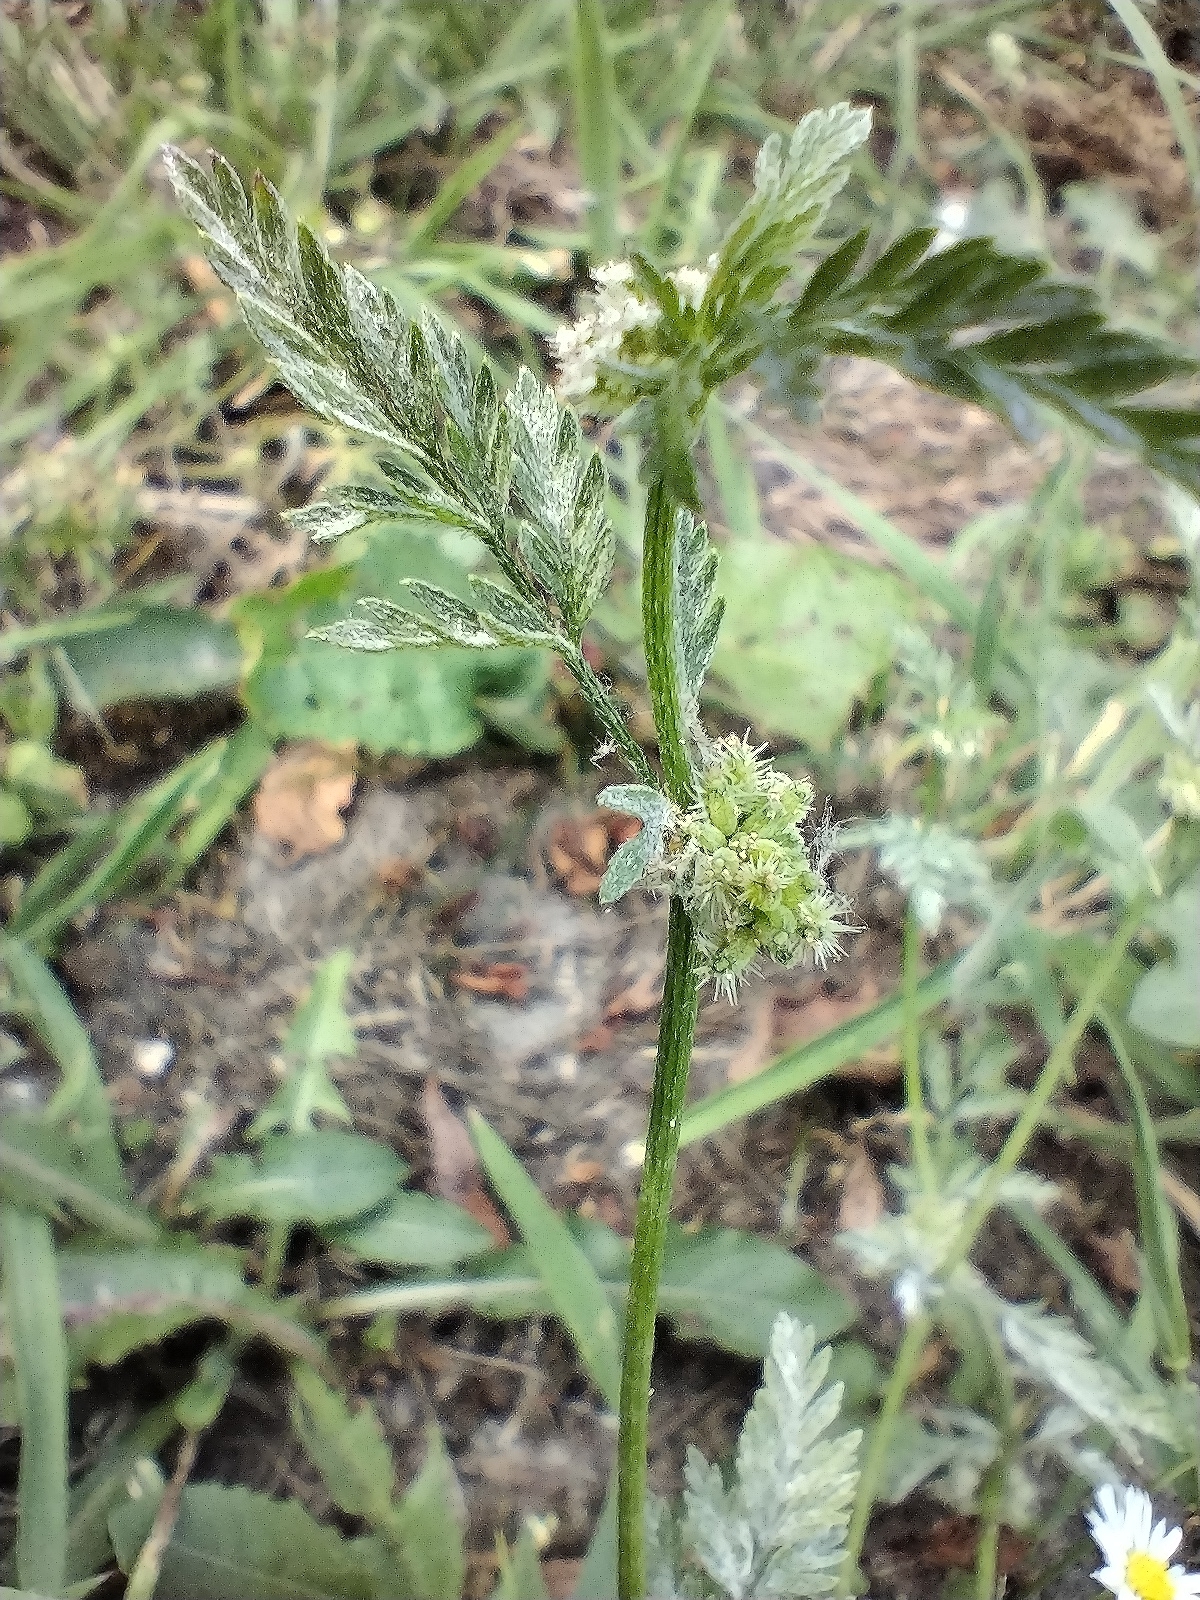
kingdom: Plantae
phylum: Tracheophyta
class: Magnoliopsida
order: Apiales
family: Apiaceae
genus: Torilis
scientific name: Torilis nodosa
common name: Knotted hedge-parsley
